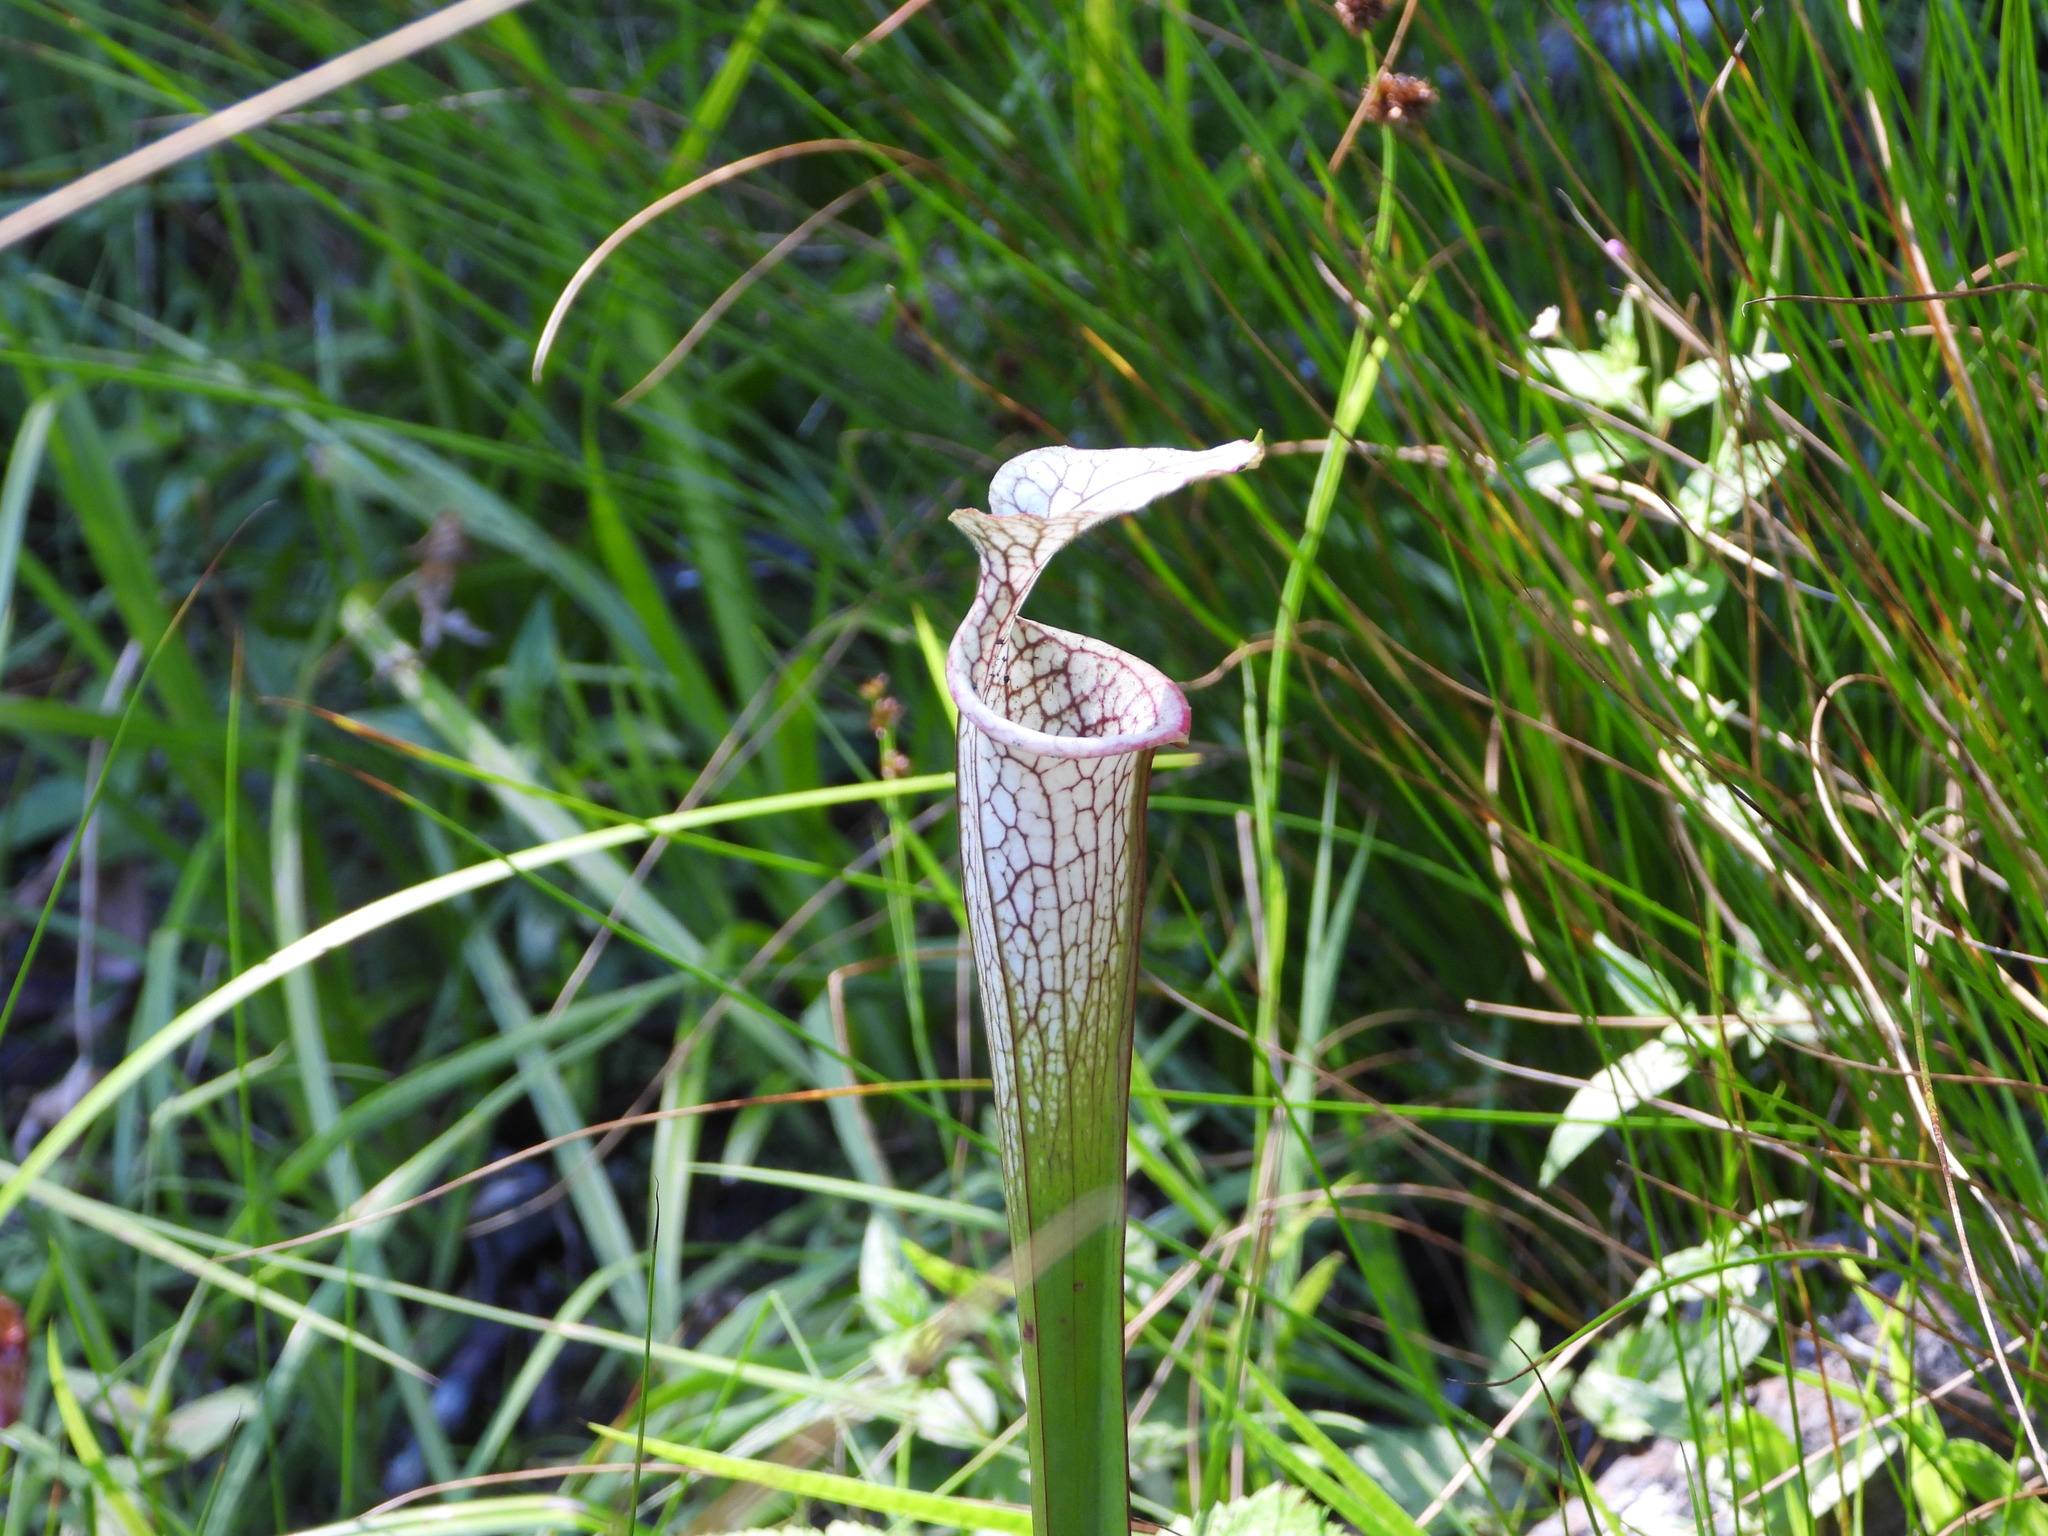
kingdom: Plantae
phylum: Tracheophyta
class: Magnoliopsida
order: Ericales
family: Sarraceniaceae
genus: Sarracenia
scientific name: Sarracenia leucophylla
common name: Purple trumpetleaf
